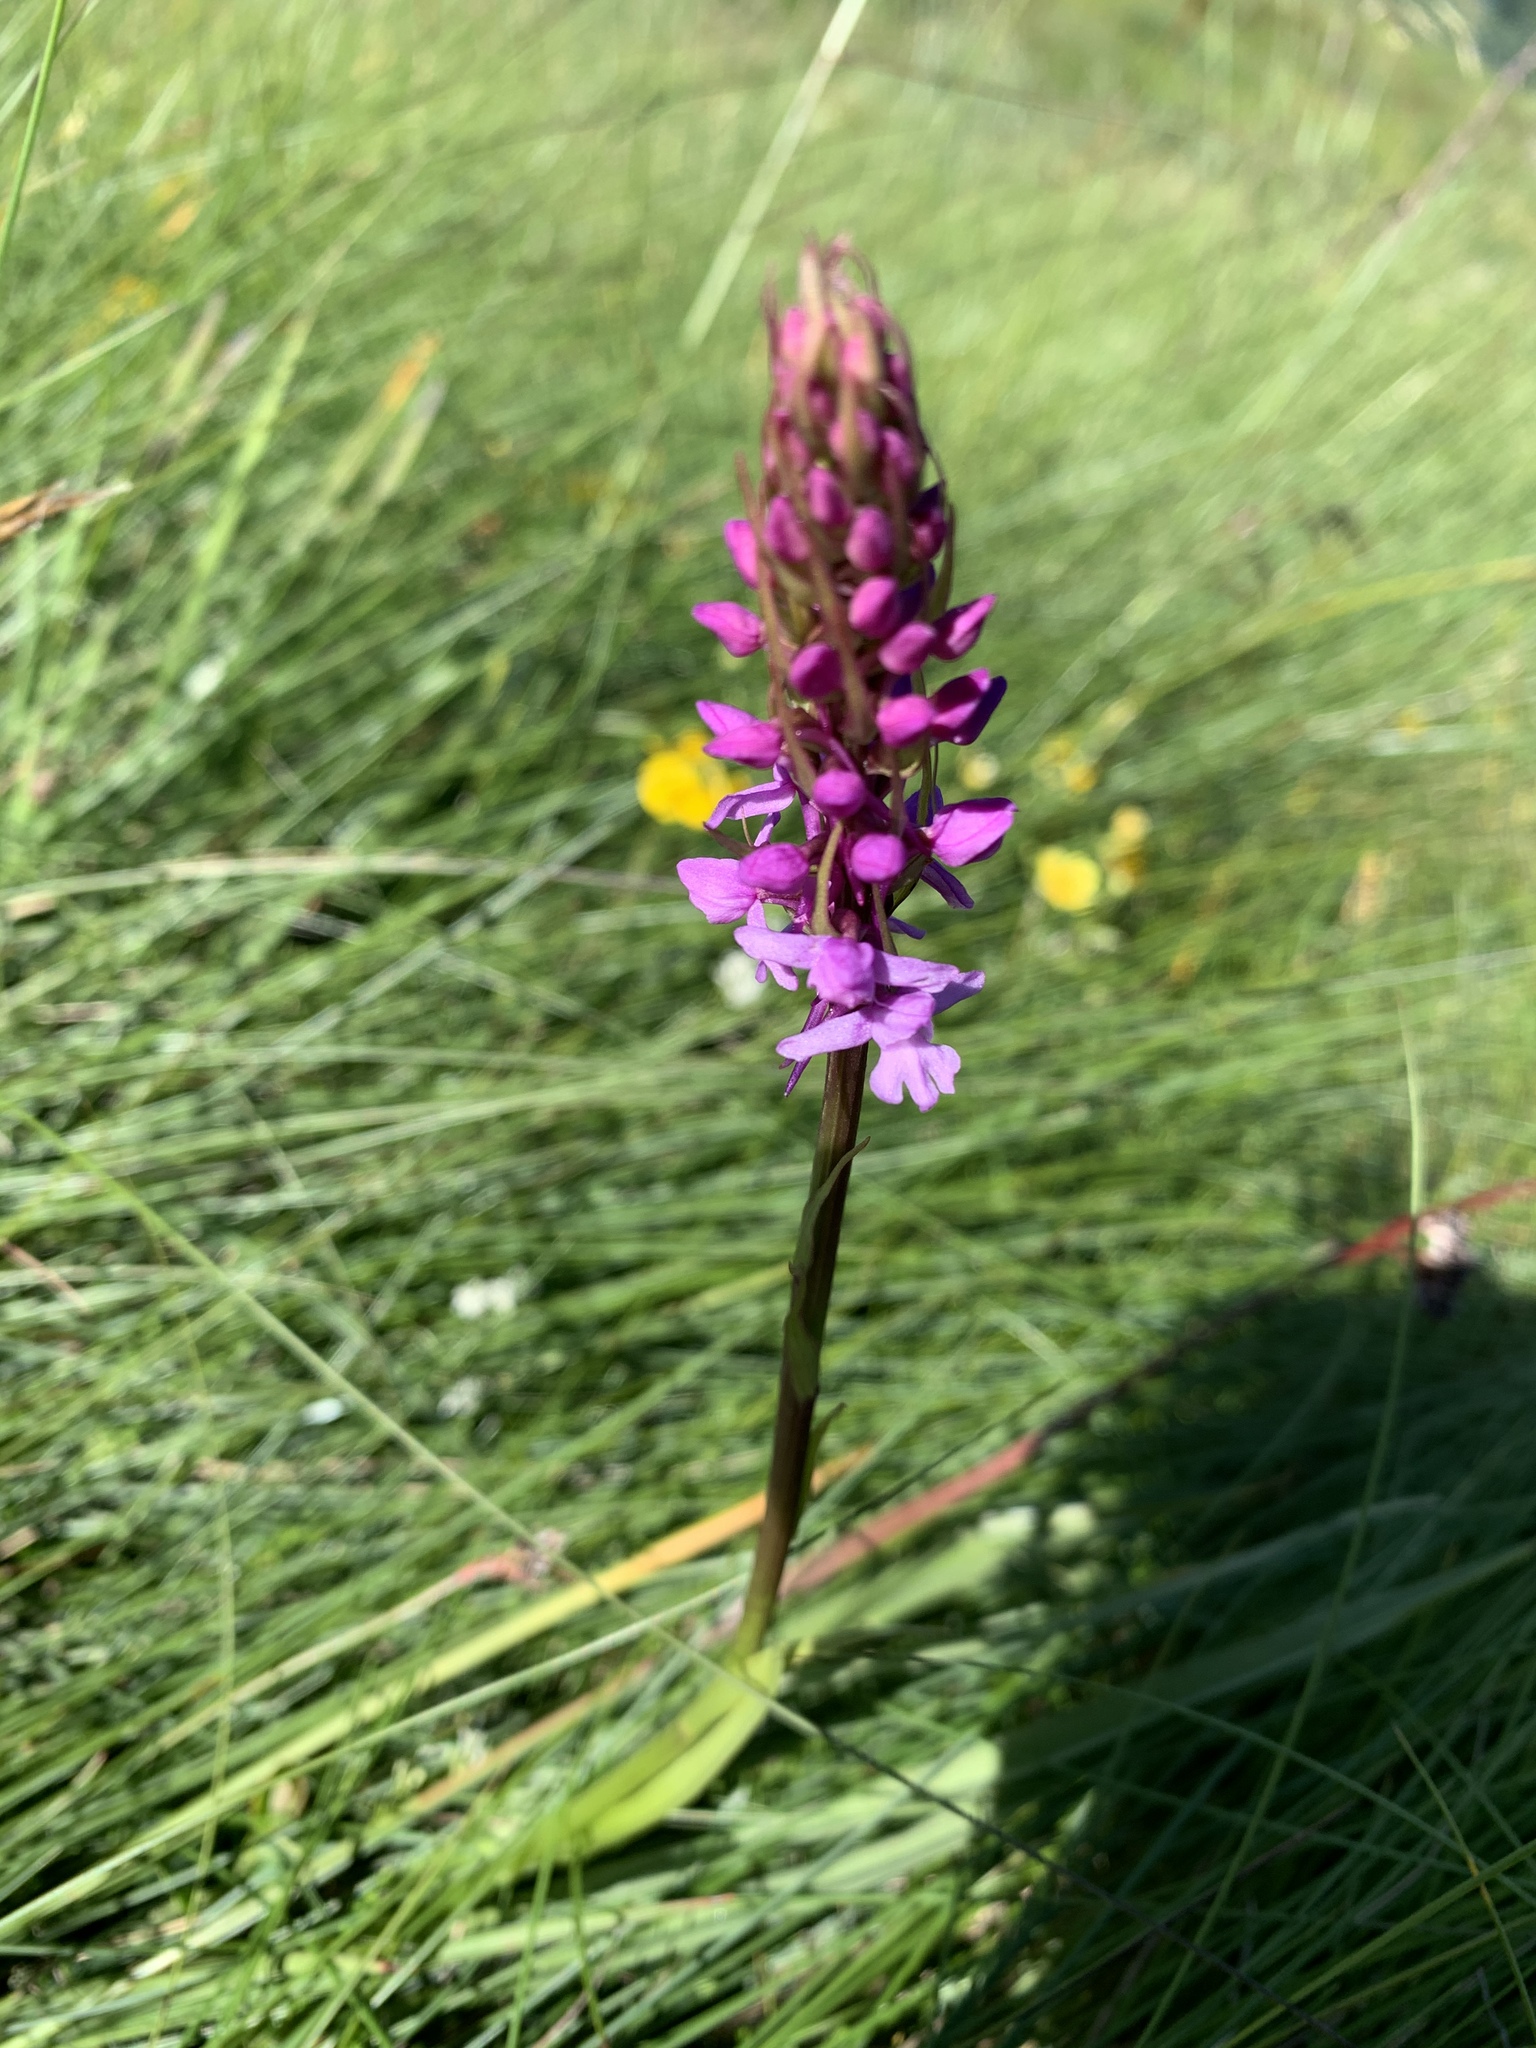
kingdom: Plantae
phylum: Tracheophyta
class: Liliopsida
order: Asparagales
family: Orchidaceae
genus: Gymnadenia
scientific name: Gymnadenia conopsea
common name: Fragrant orchid
